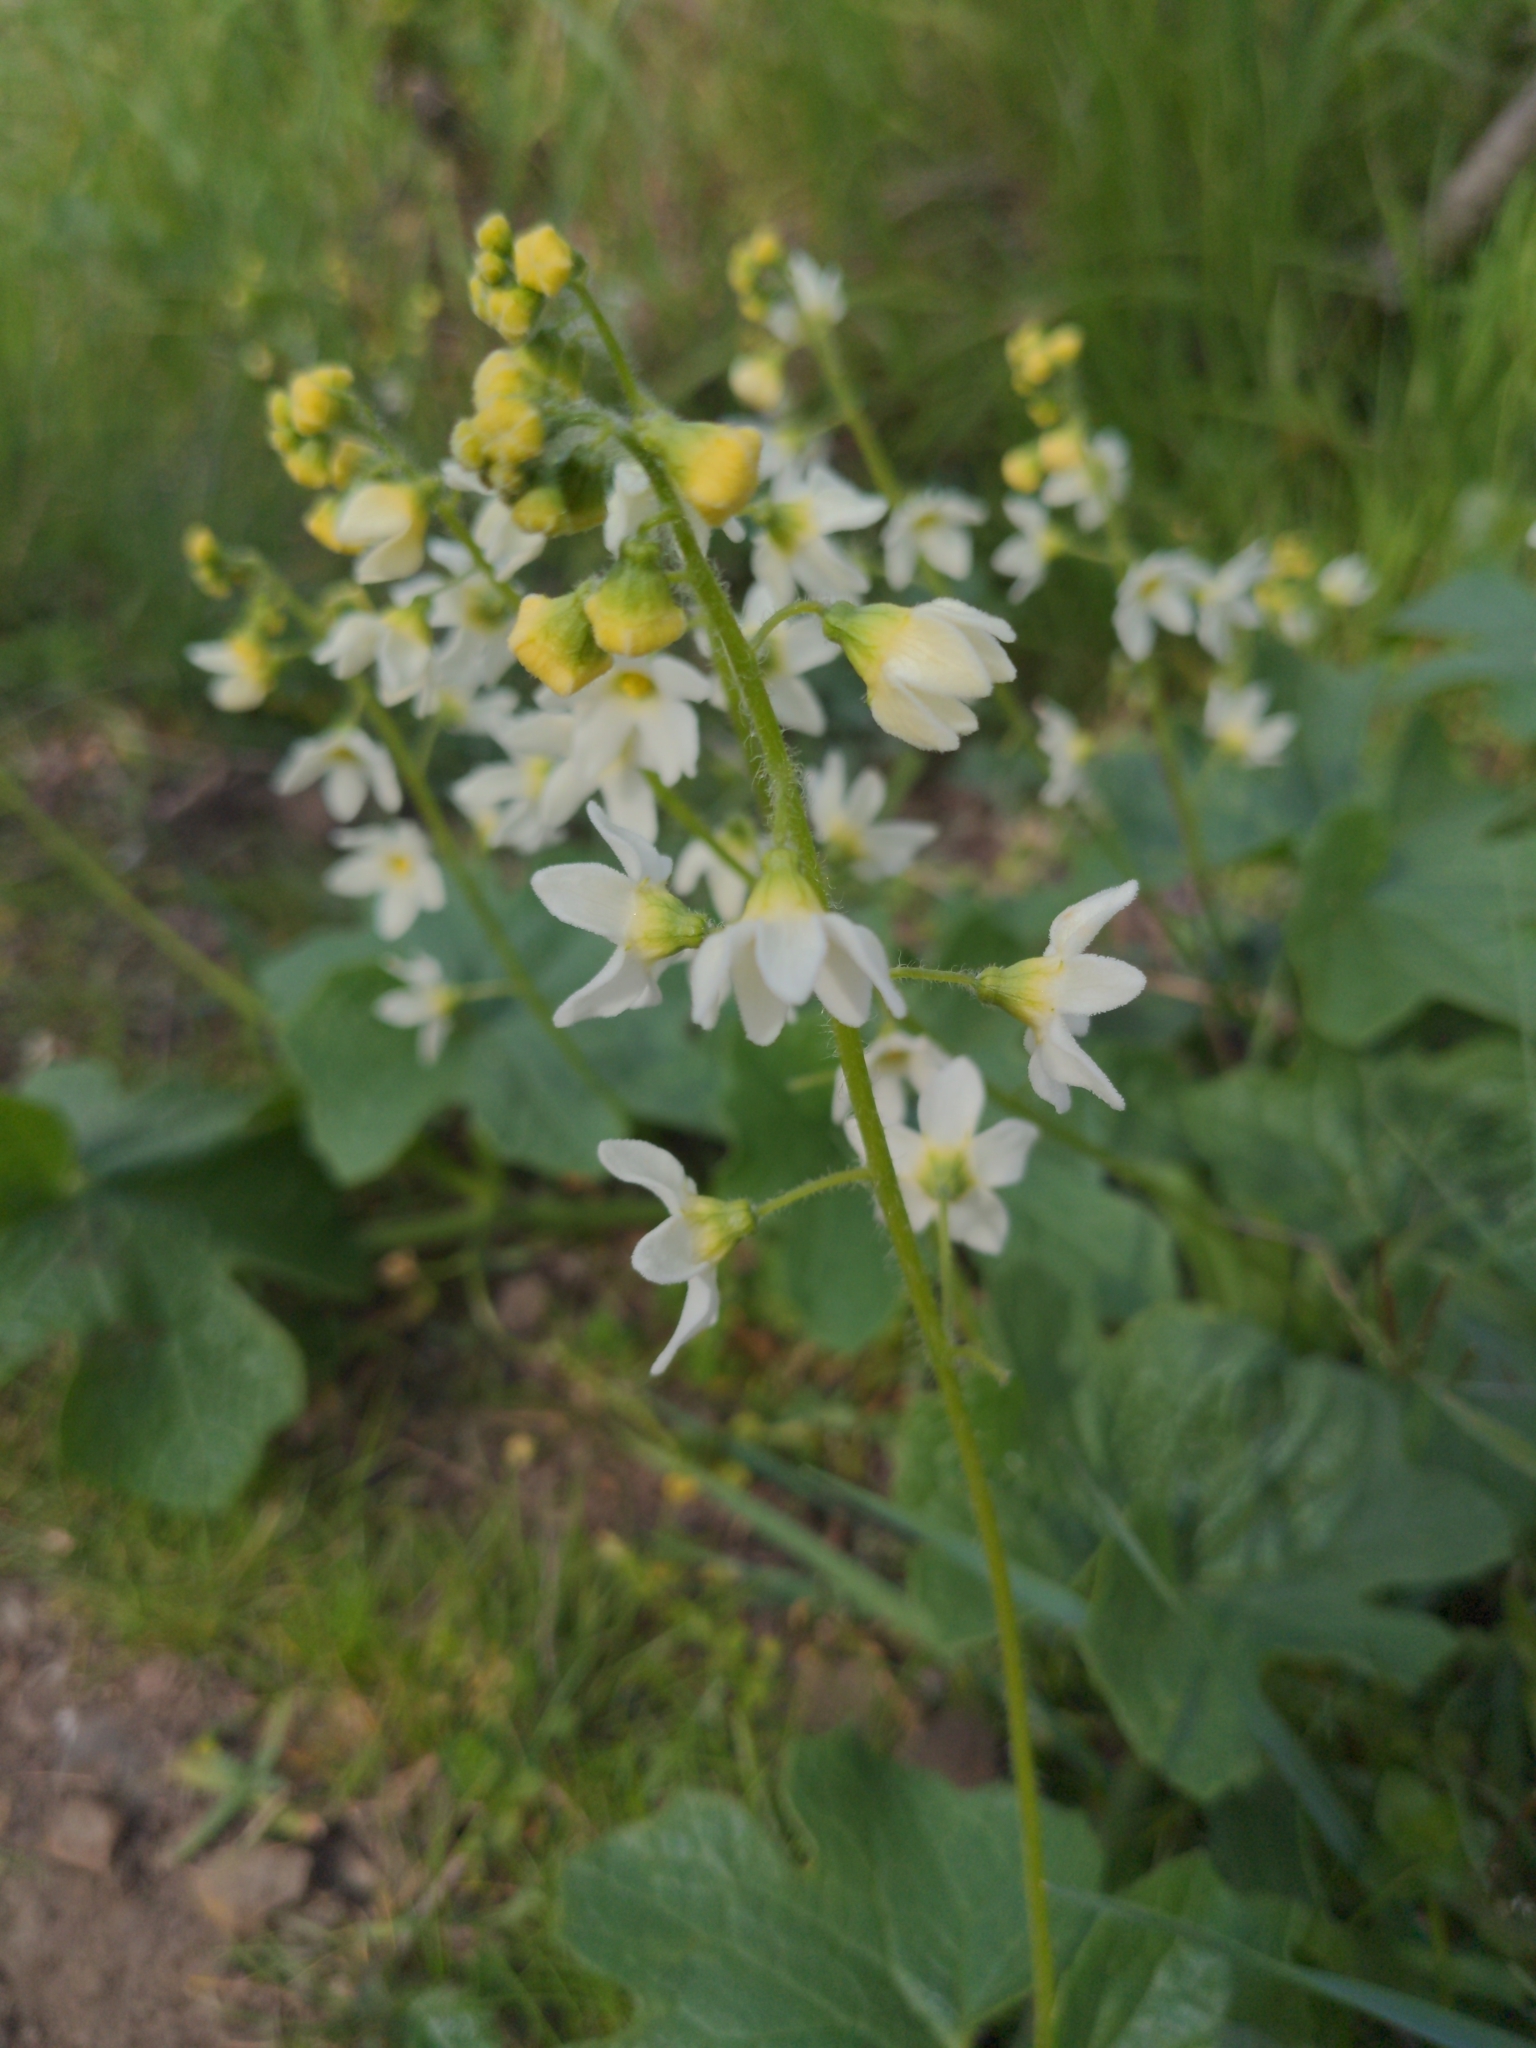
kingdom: Plantae
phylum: Tracheophyta
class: Magnoliopsida
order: Cucurbitales
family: Cucurbitaceae
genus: Marah
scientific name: Marah oregana
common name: Coastal manroot
